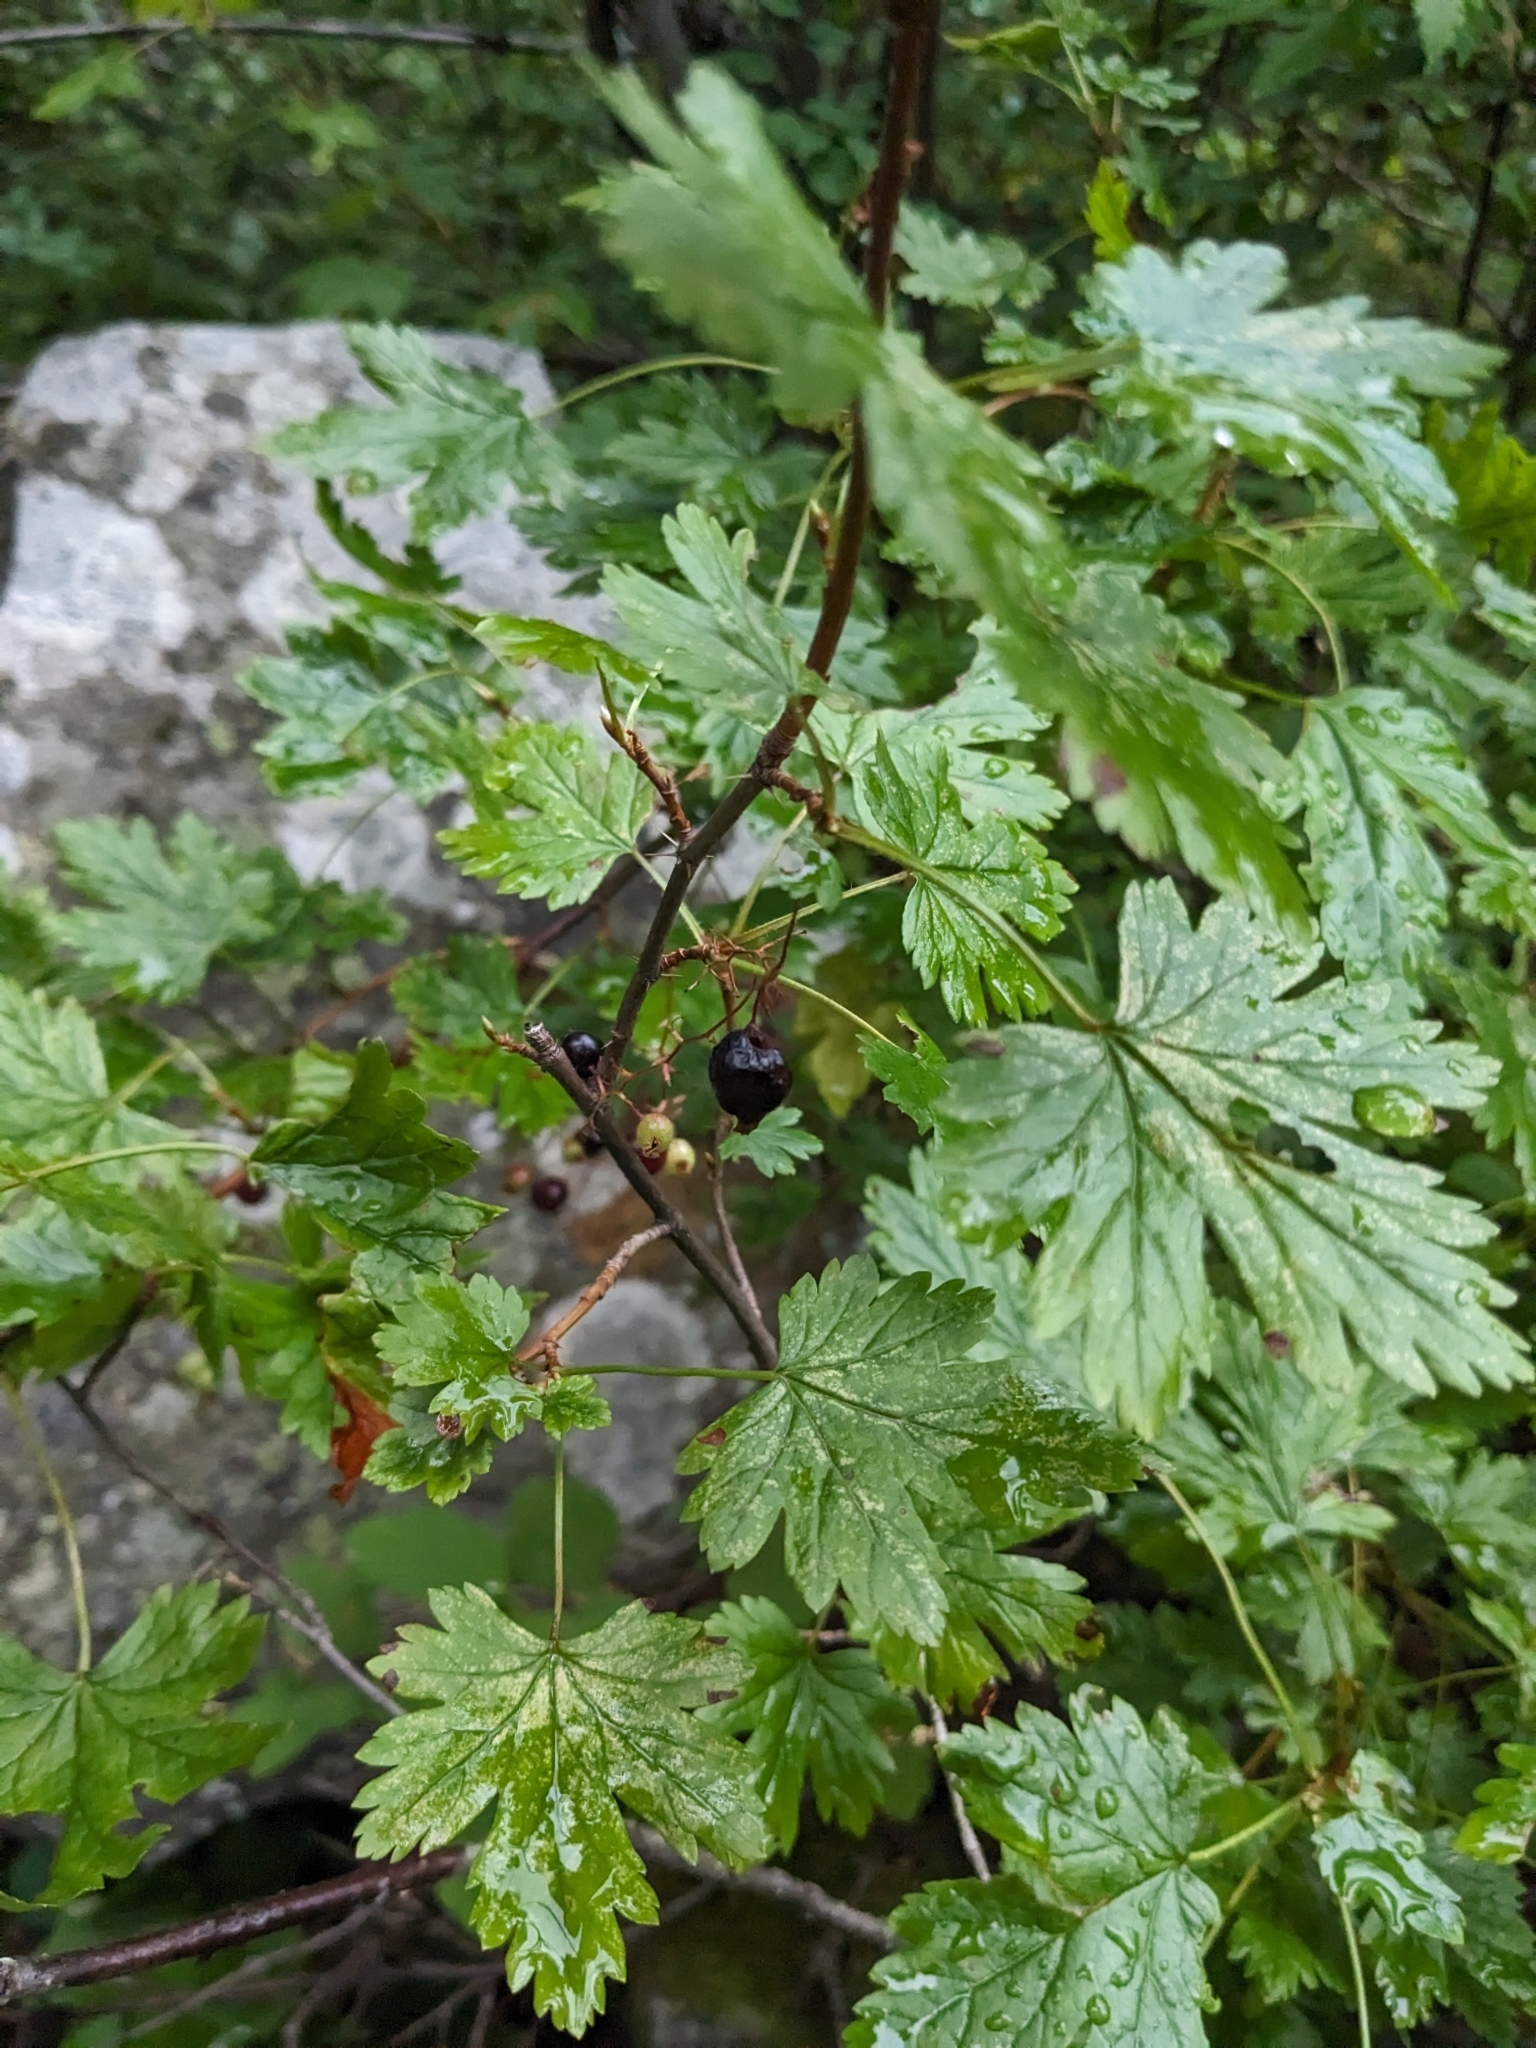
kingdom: Plantae
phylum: Tracheophyta
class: Magnoliopsida
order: Saxifragales
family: Grossulariaceae
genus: Ribes
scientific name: Ribes lacustre
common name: Black gooseberry
